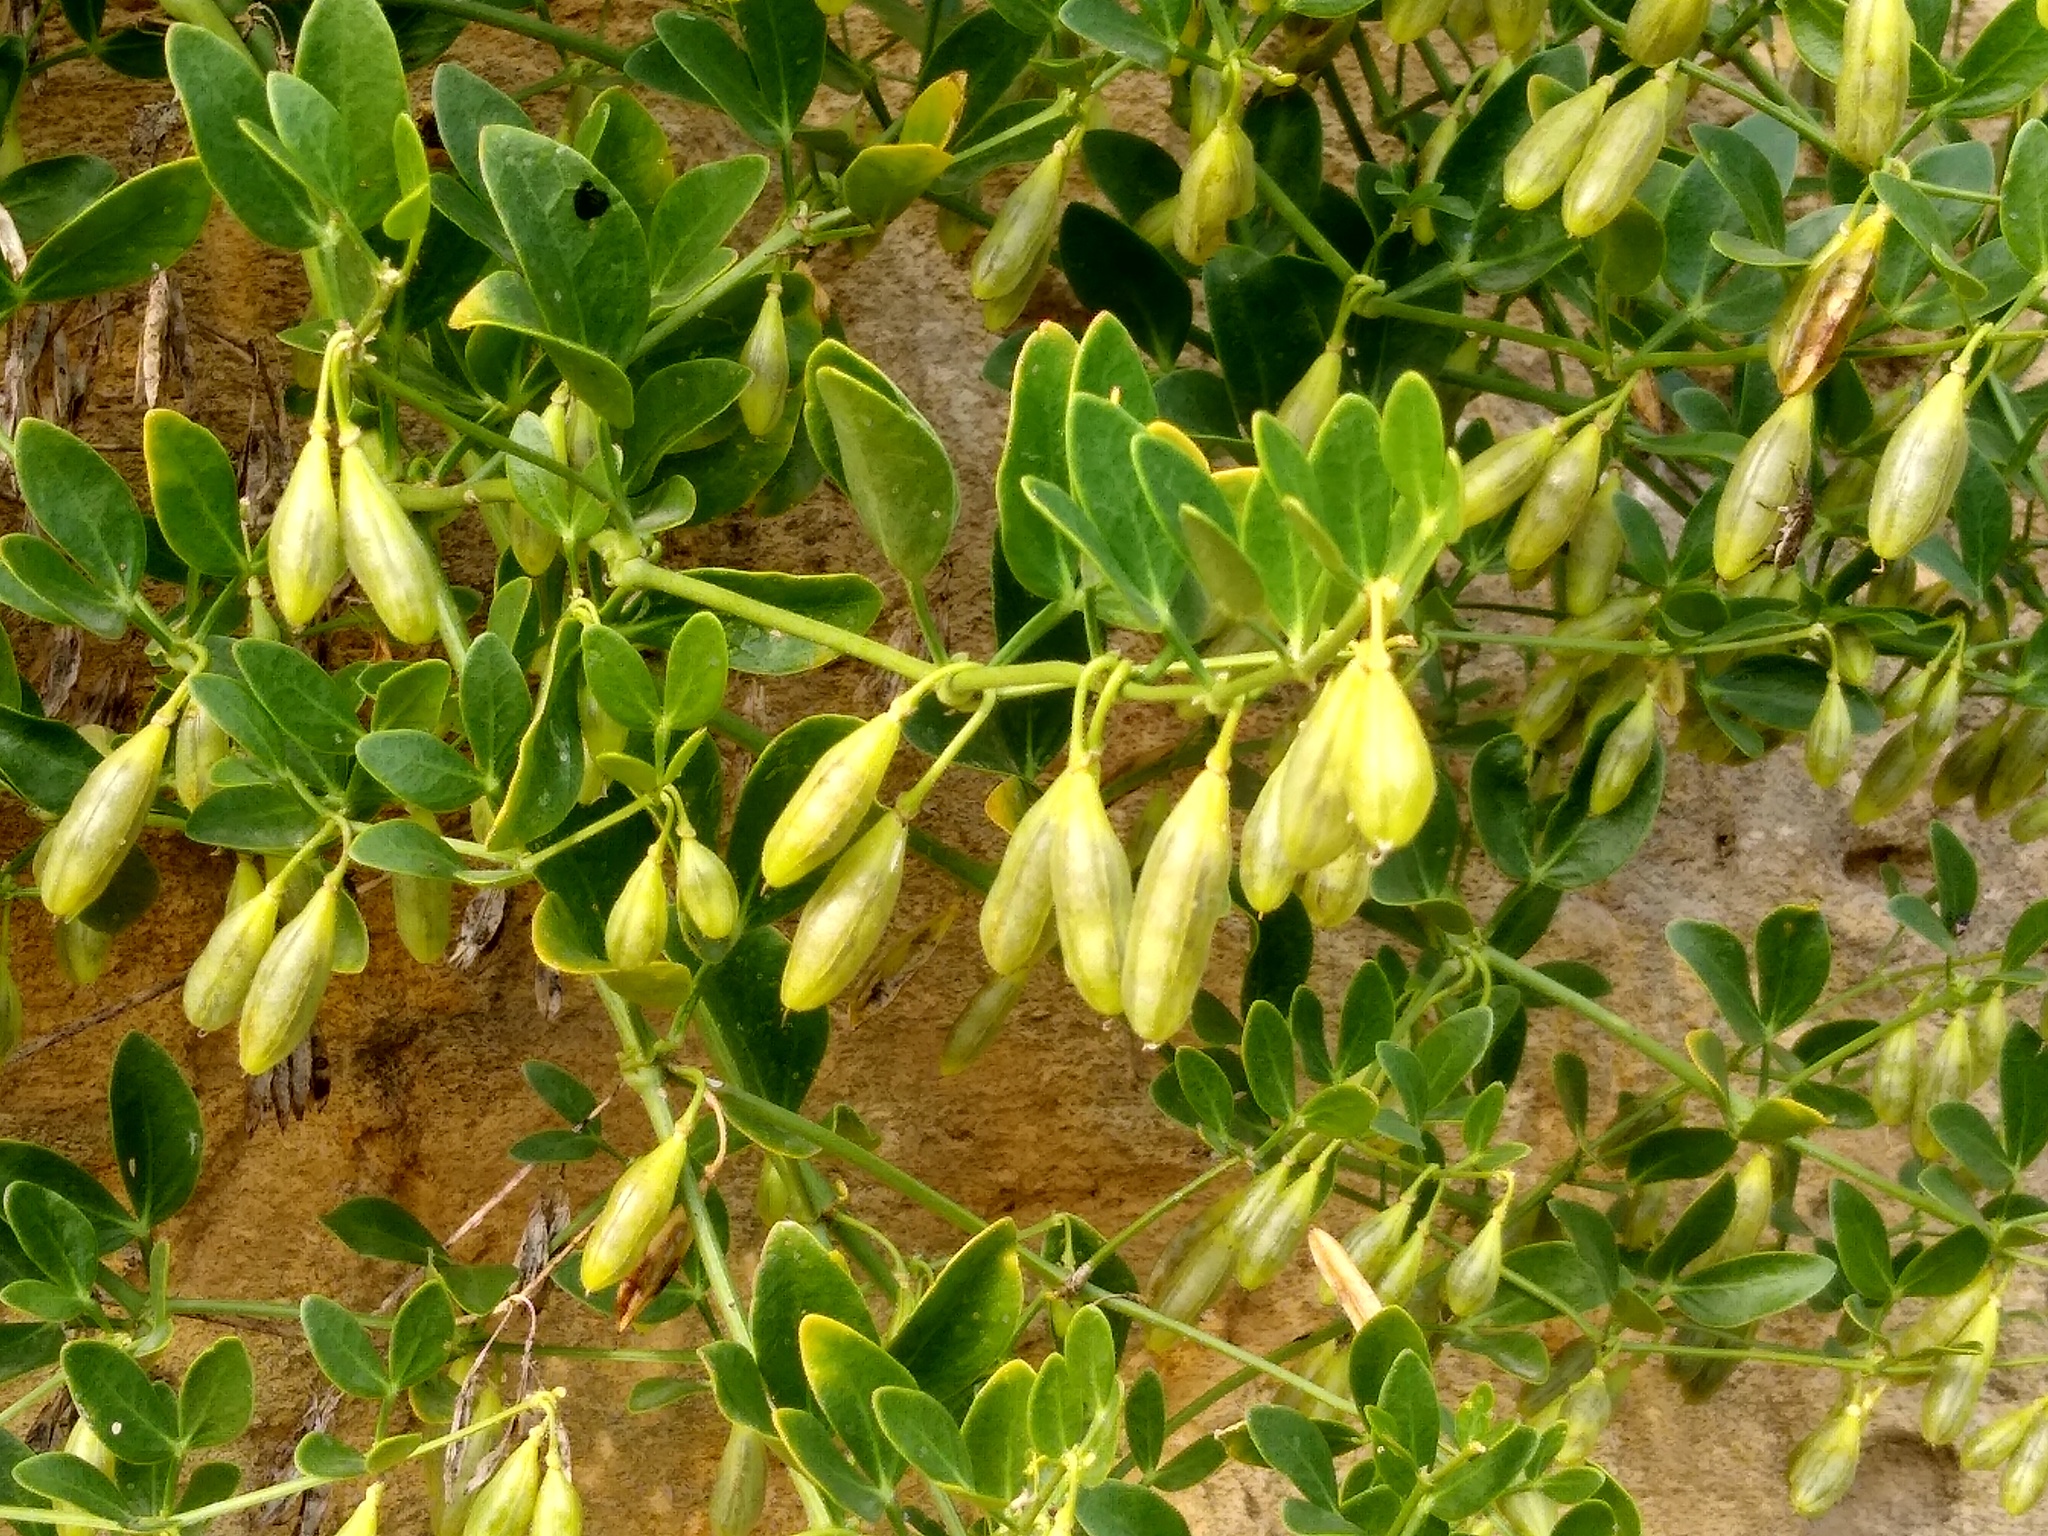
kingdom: Plantae
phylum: Tracheophyta
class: Magnoliopsida
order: Zygophyllales
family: Zygophyllaceae
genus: Zygophyllum
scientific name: Zygophyllum fabago
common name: Syrian beancaper
